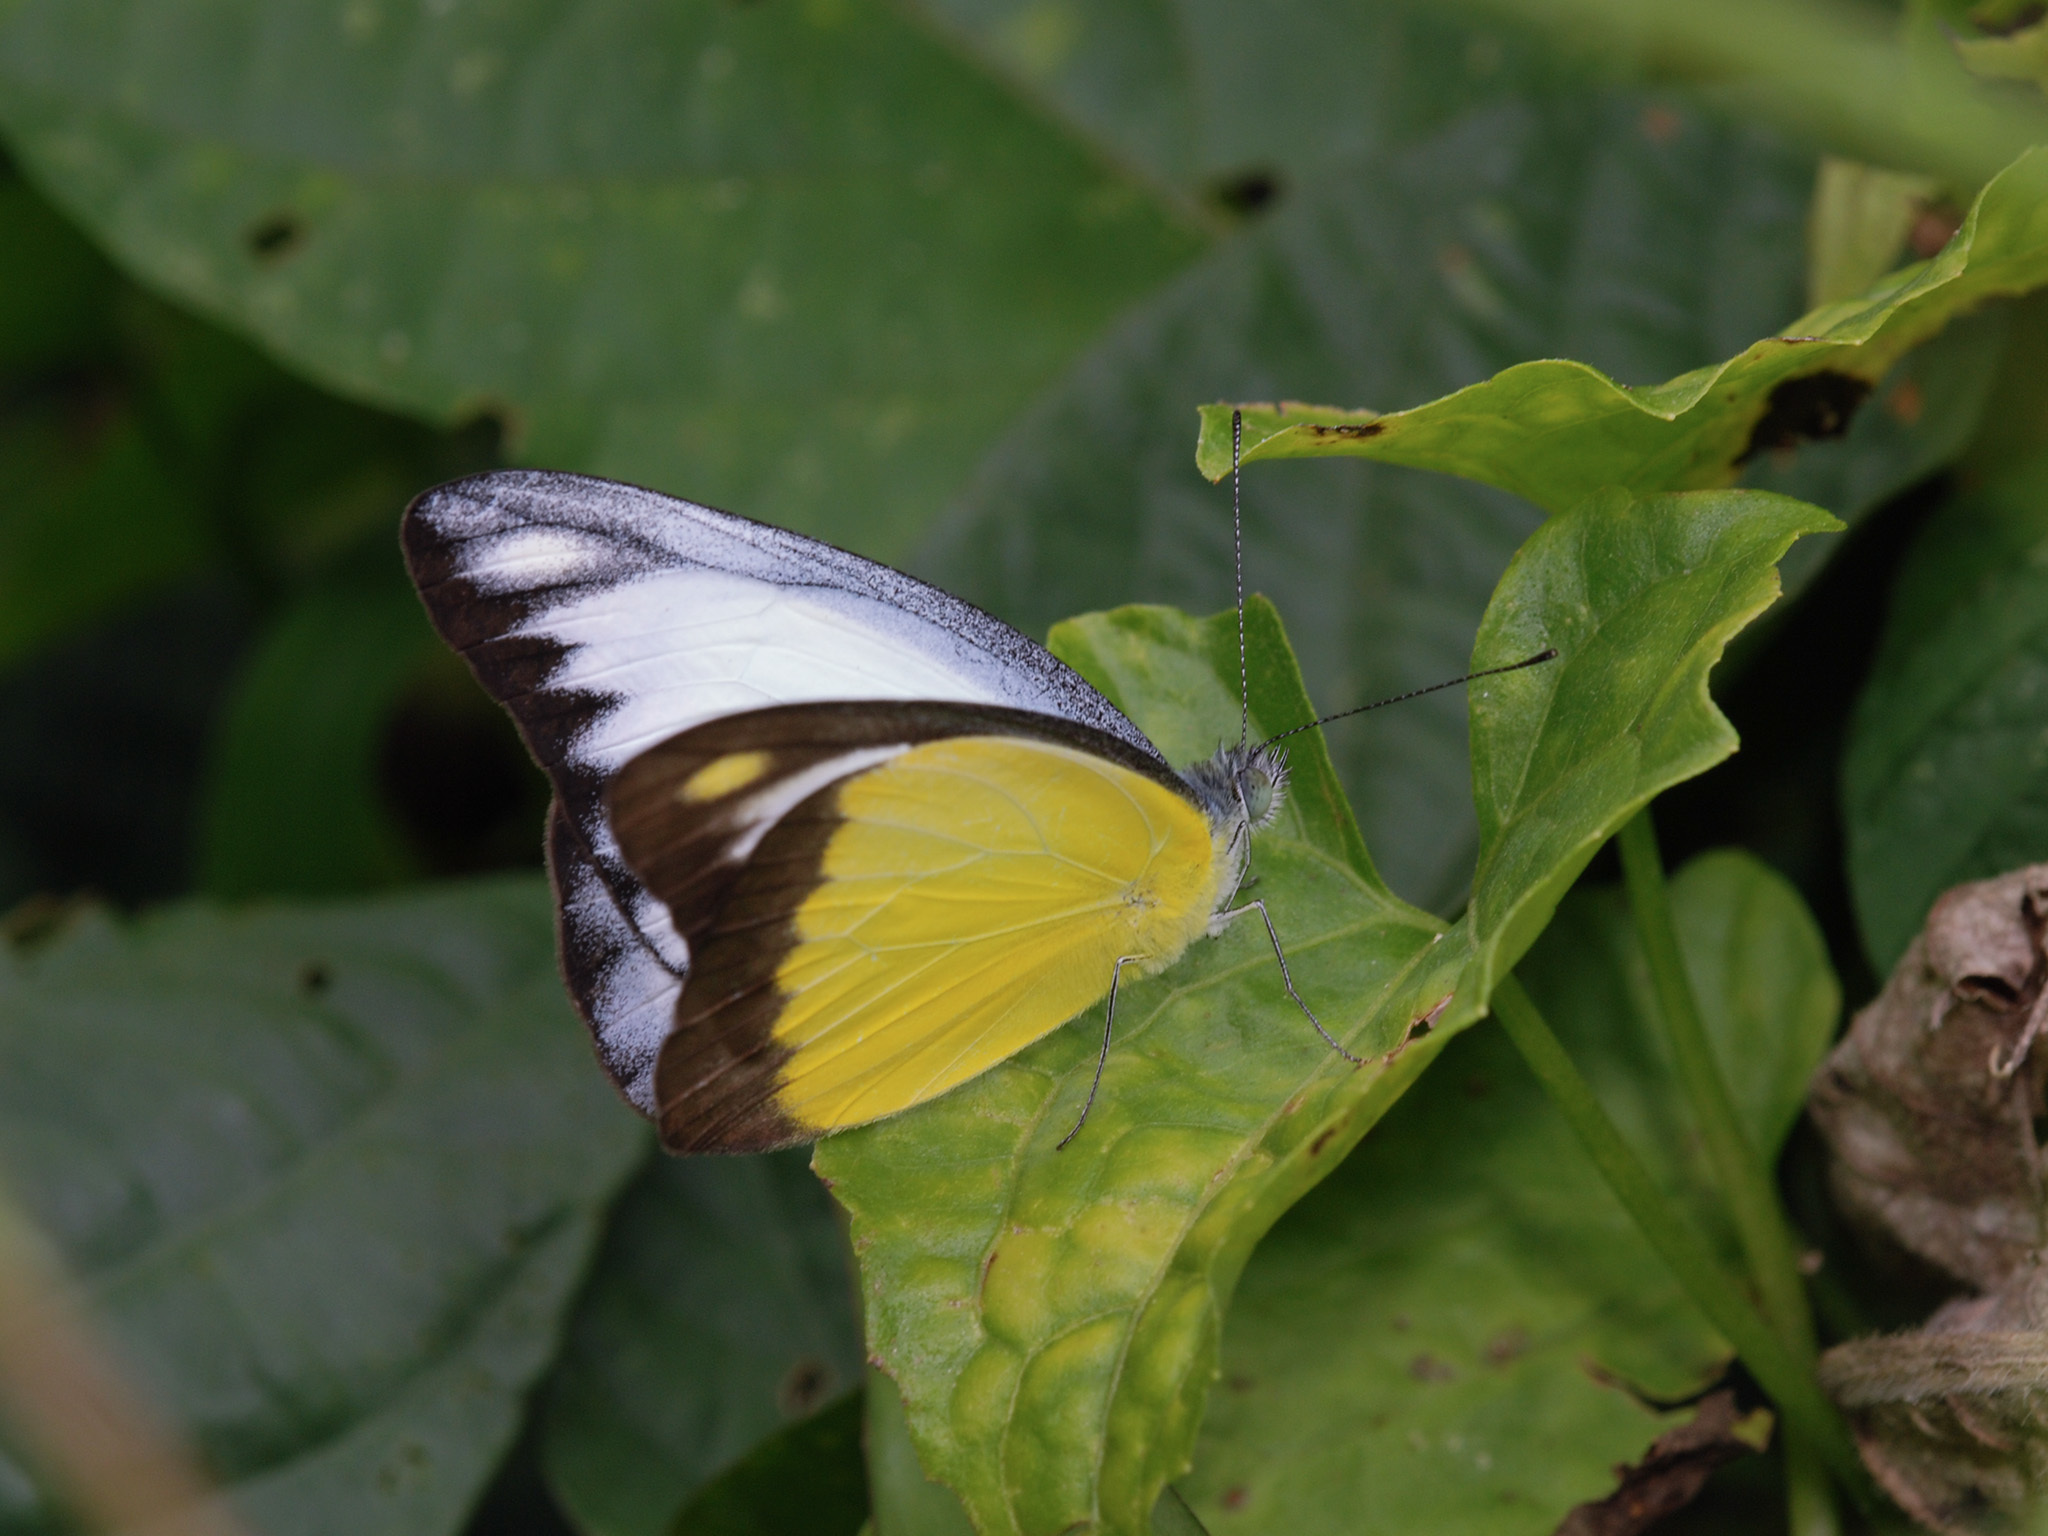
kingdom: Animalia
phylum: Arthropoda
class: Insecta
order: Lepidoptera
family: Pieridae
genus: Appias
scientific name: Appias lyncida
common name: Chocolate albatross
